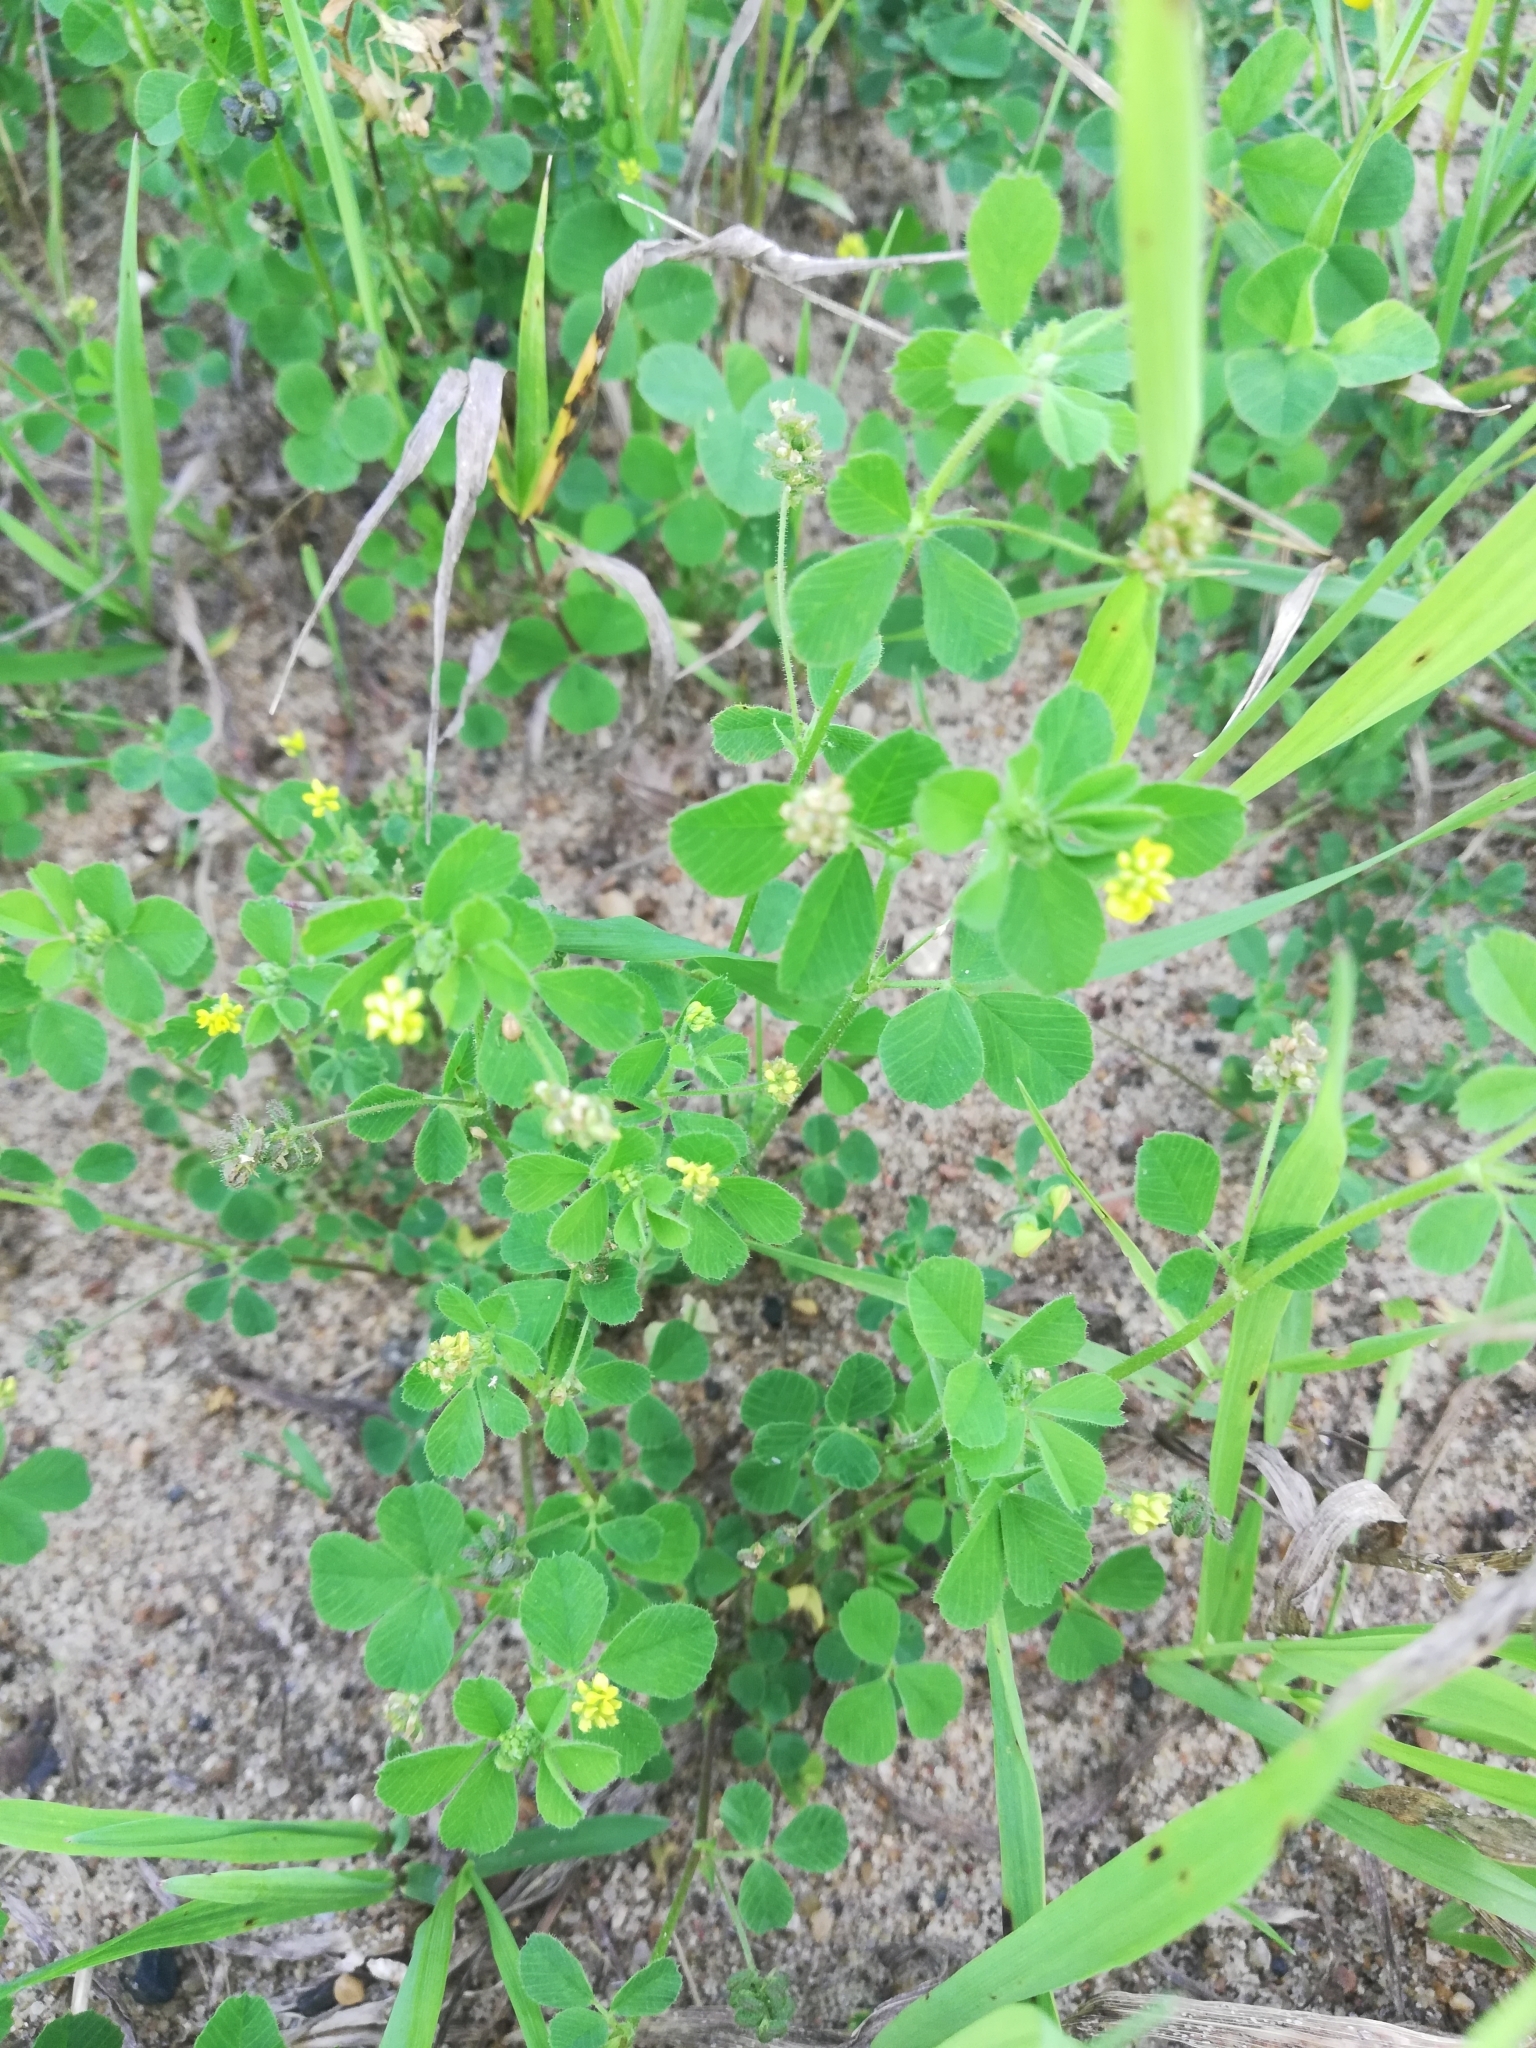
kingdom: Plantae
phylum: Tracheophyta
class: Magnoliopsida
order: Fabales
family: Fabaceae
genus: Medicago
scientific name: Medicago lupulina
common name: Black medick
